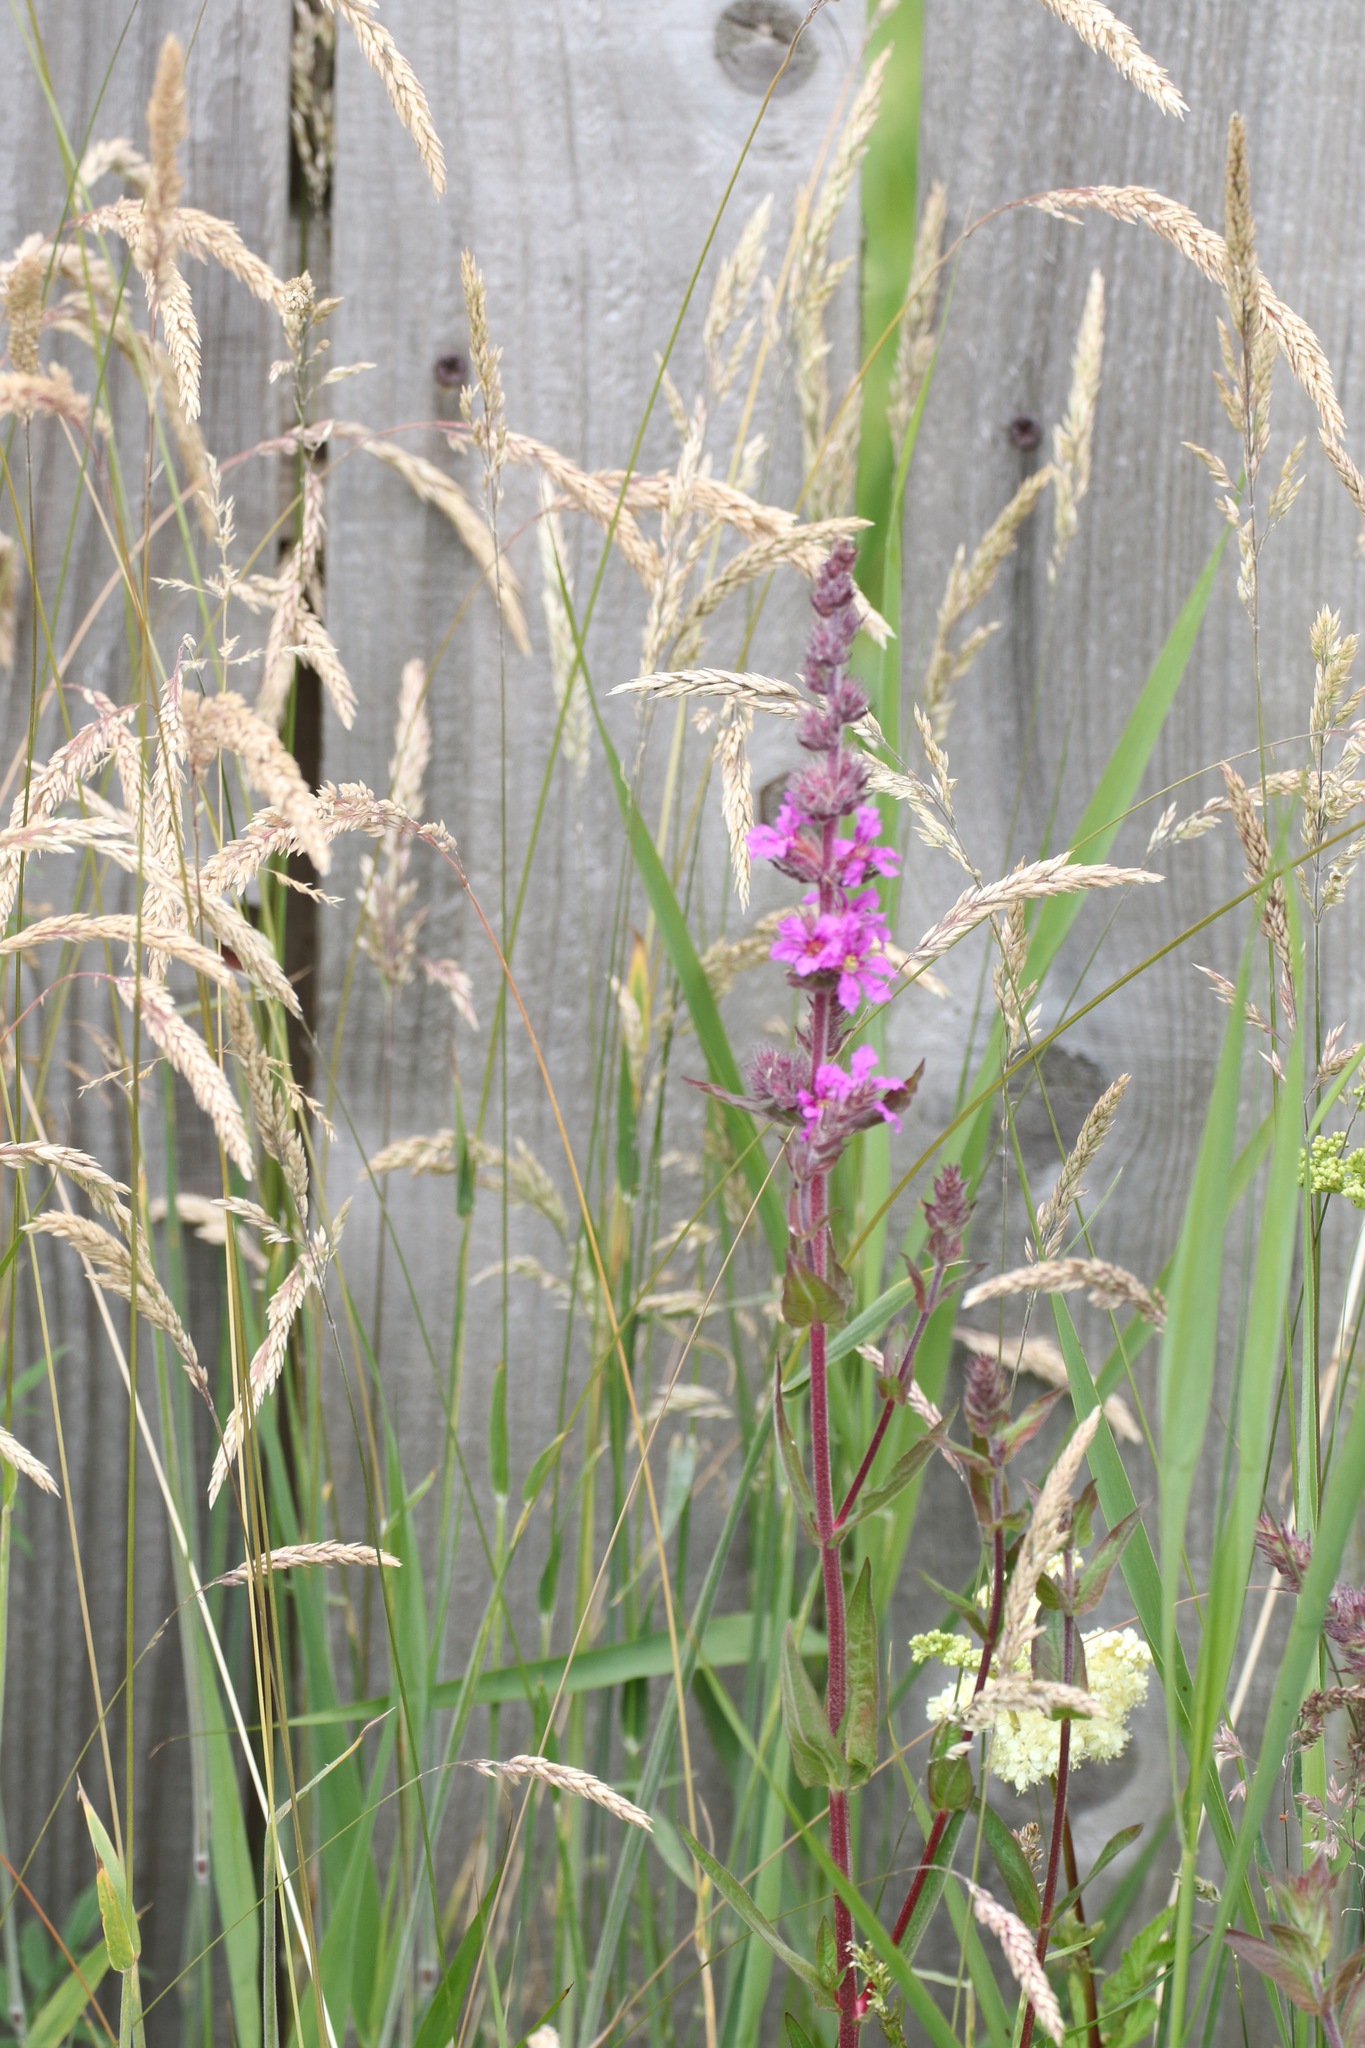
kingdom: Plantae
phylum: Tracheophyta
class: Magnoliopsida
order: Myrtales
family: Lythraceae
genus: Lythrum
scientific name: Lythrum salicaria
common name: Purple loosestrife
